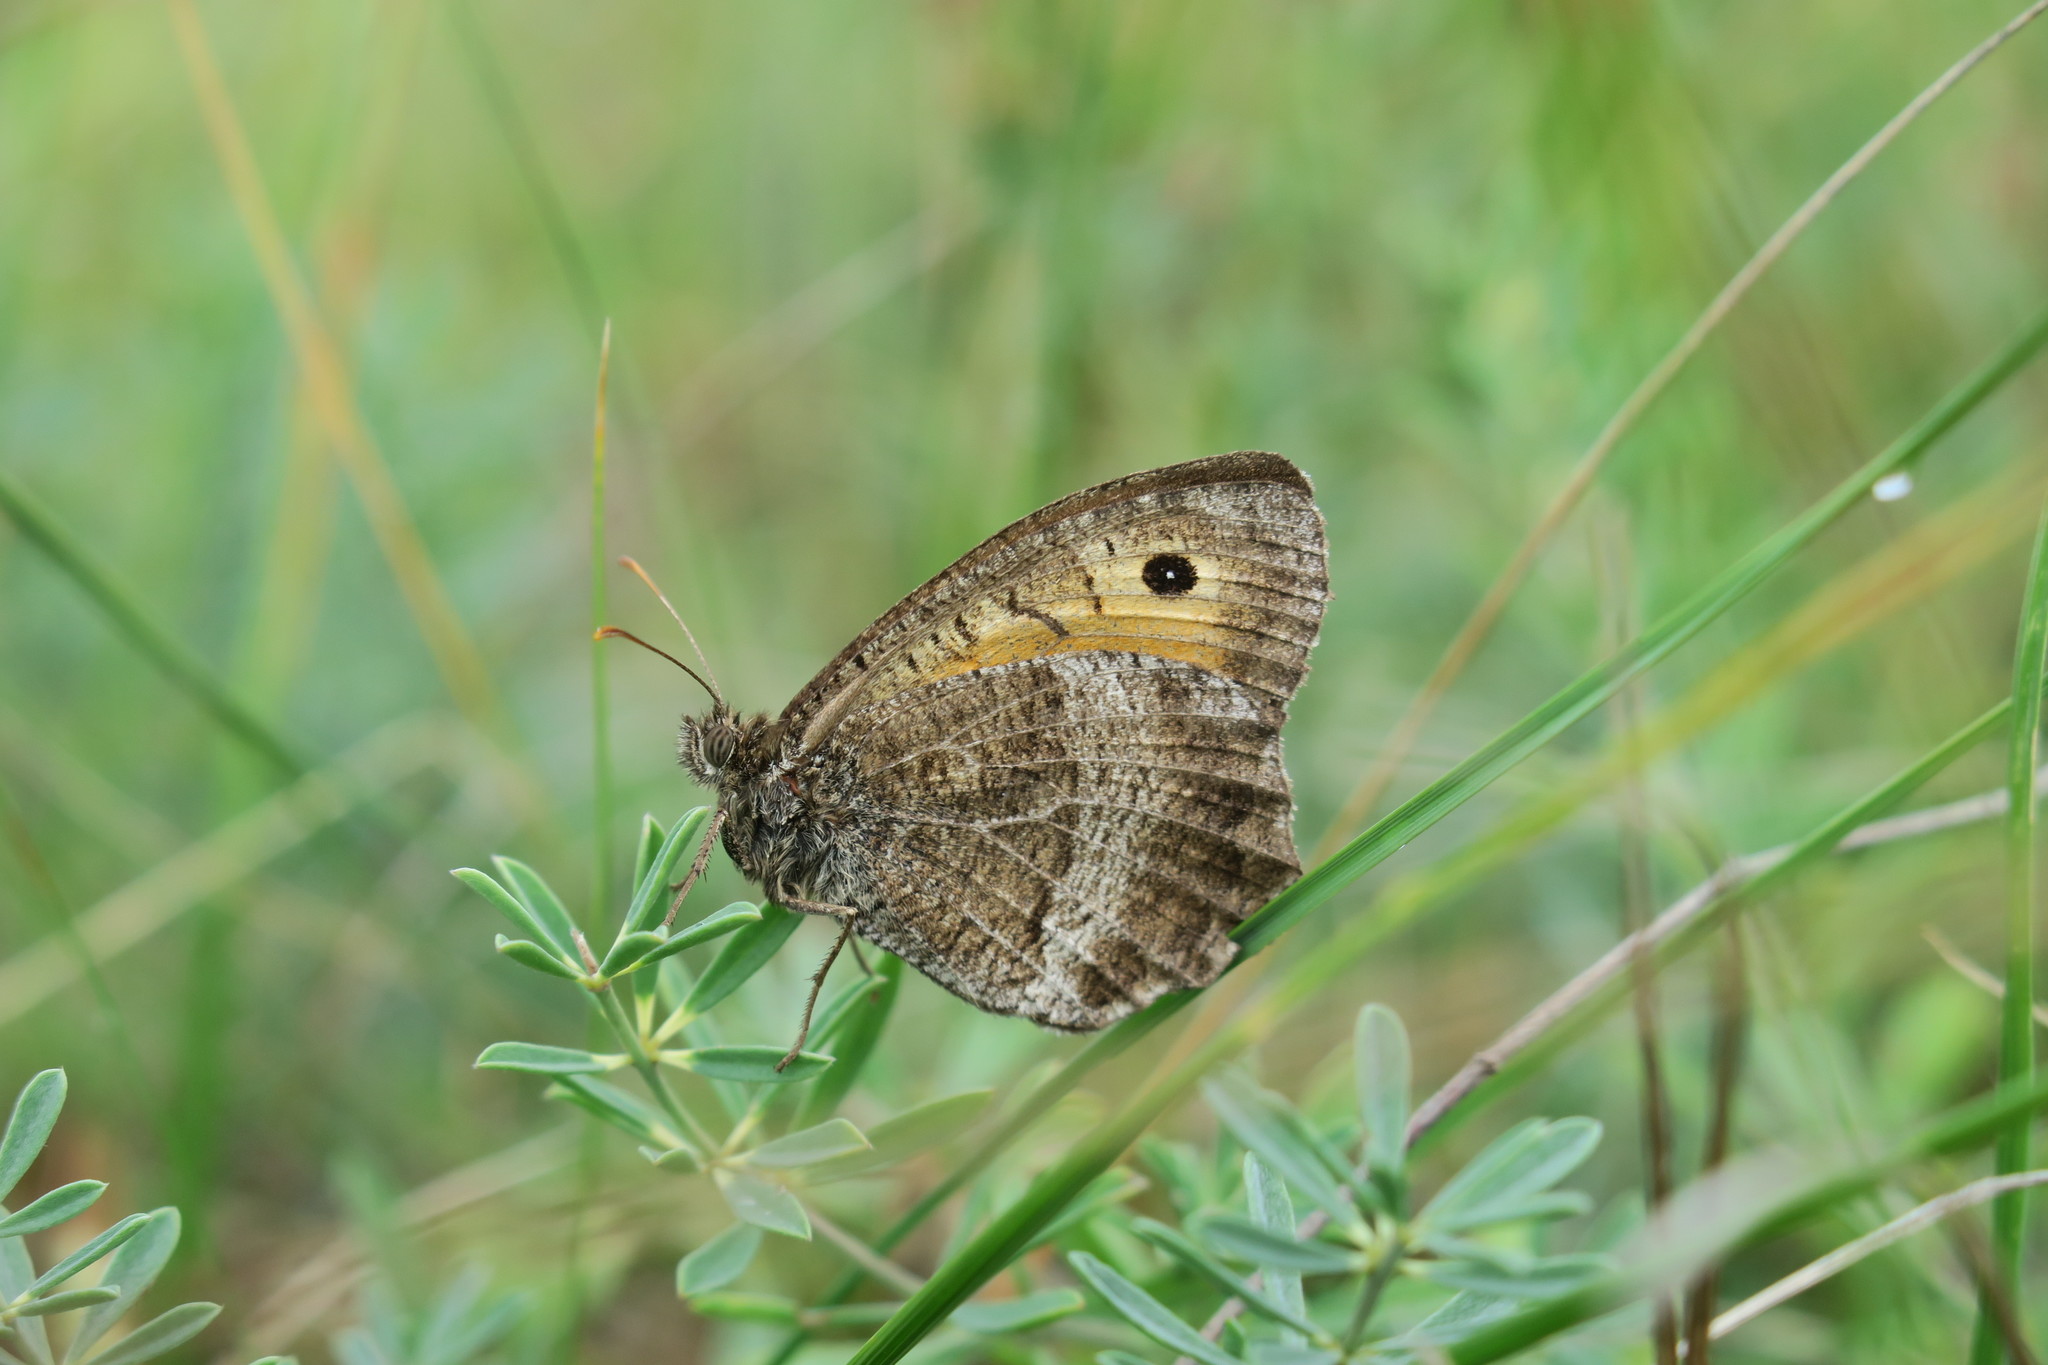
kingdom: Animalia
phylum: Arthropoda
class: Insecta
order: Lepidoptera
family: Nymphalidae
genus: Arethusana
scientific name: Arethusana arethusa
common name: False grayling
